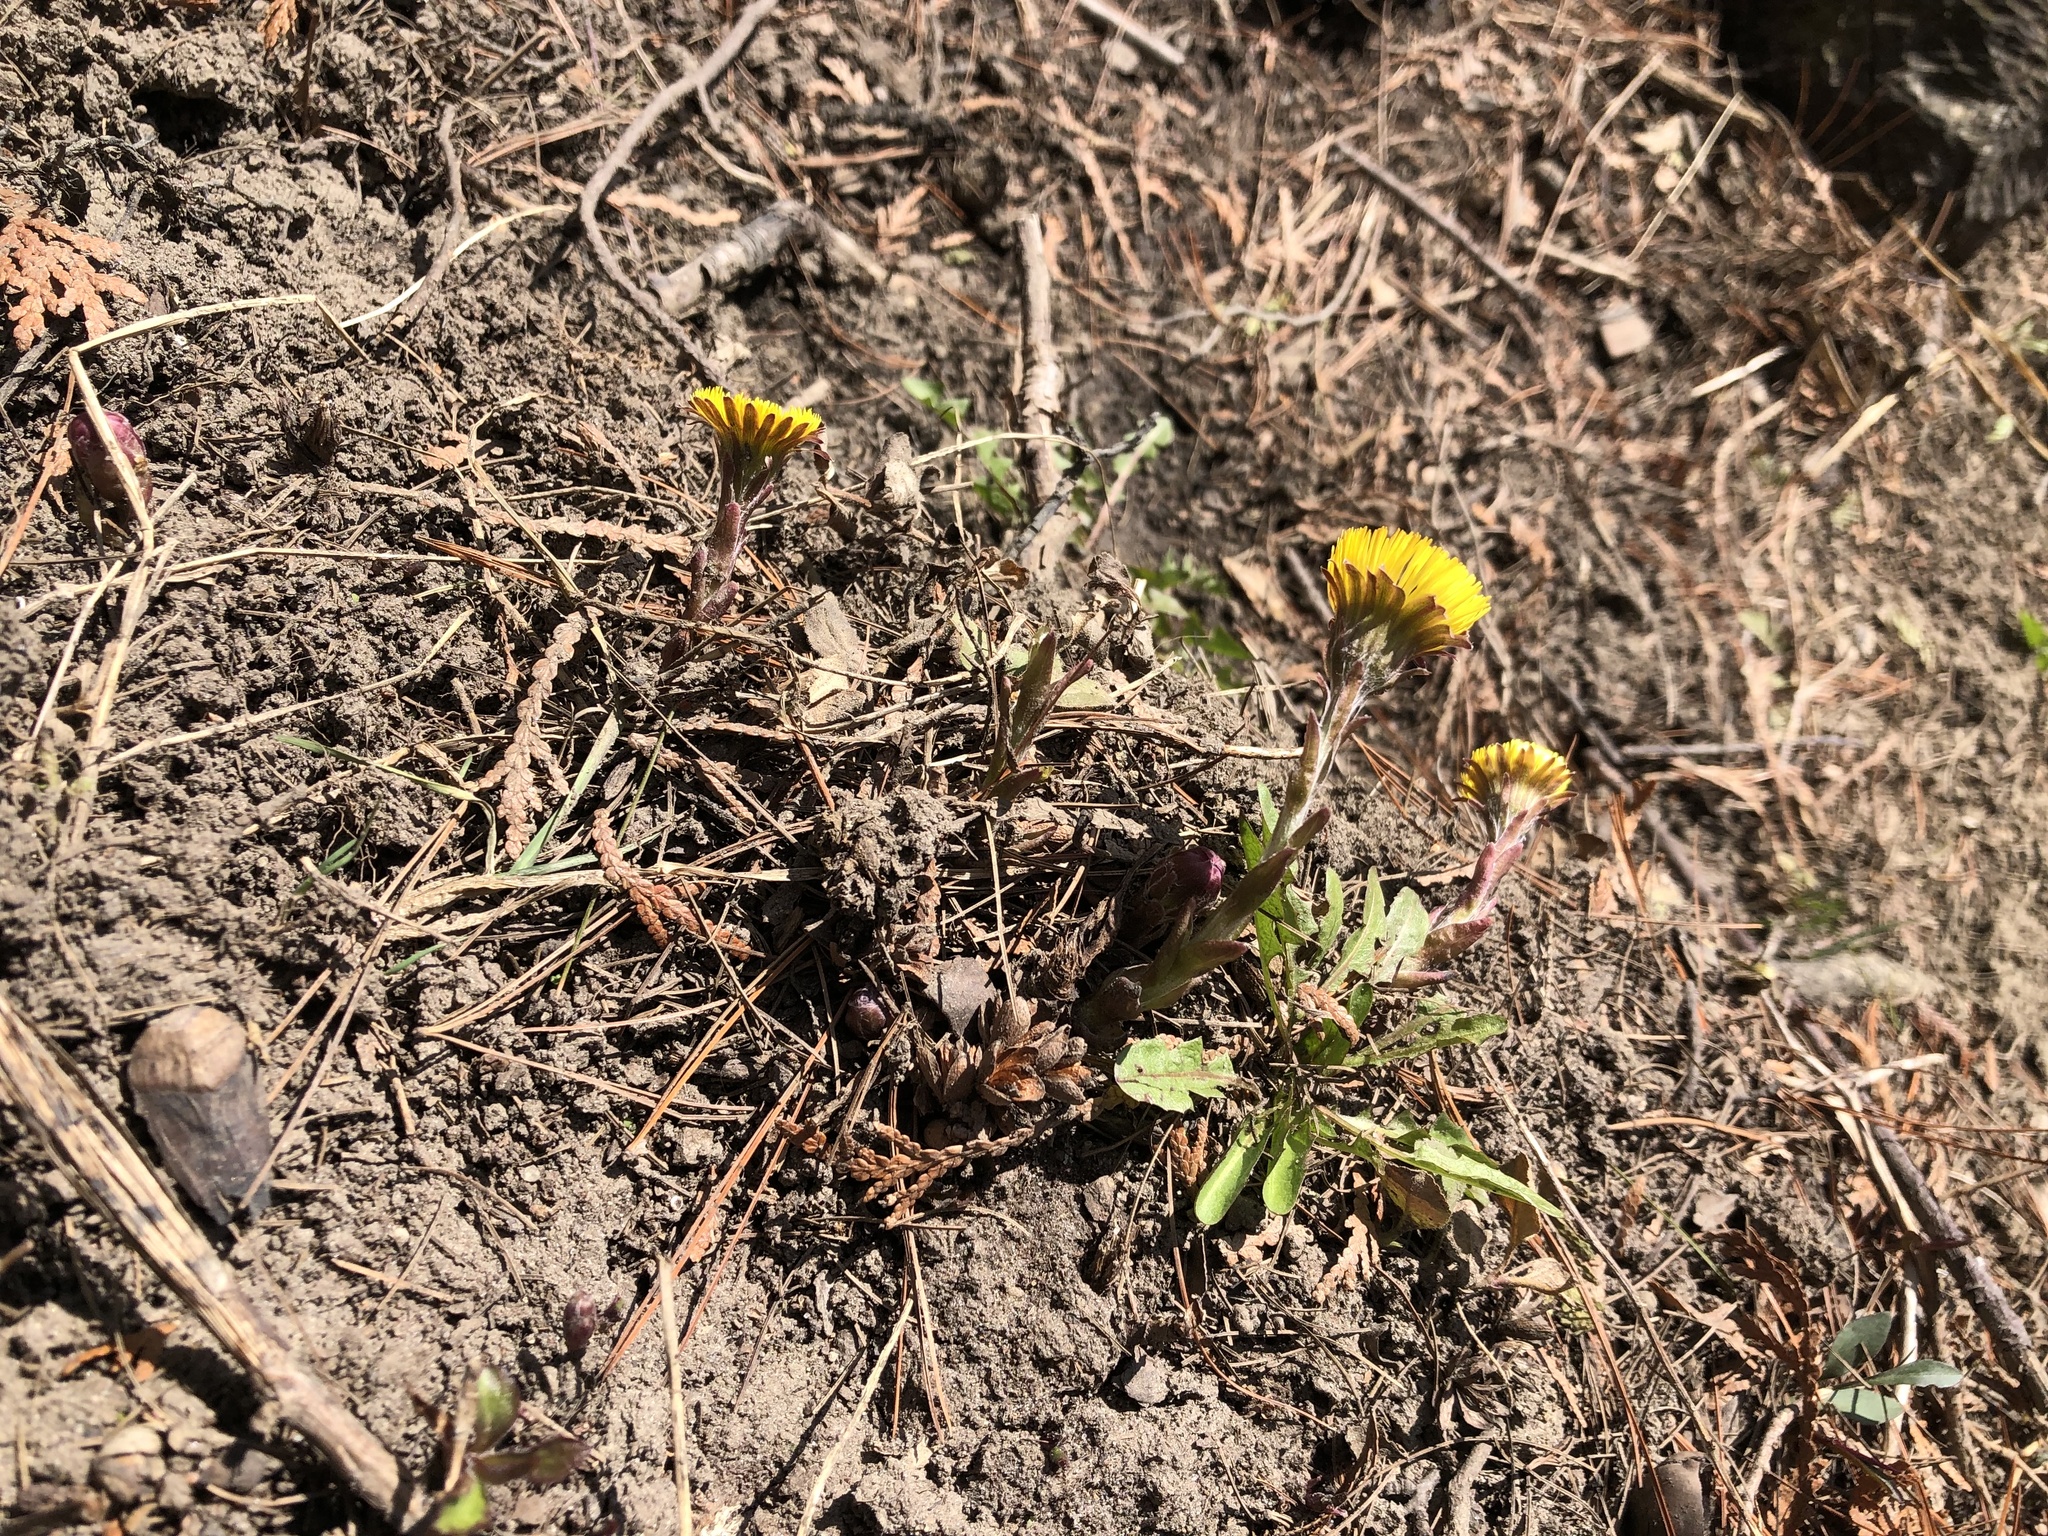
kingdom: Plantae
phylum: Tracheophyta
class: Magnoliopsida
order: Asterales
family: Asteraceae
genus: Tussilago
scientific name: Tussilago farfara
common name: Coltsfoot
